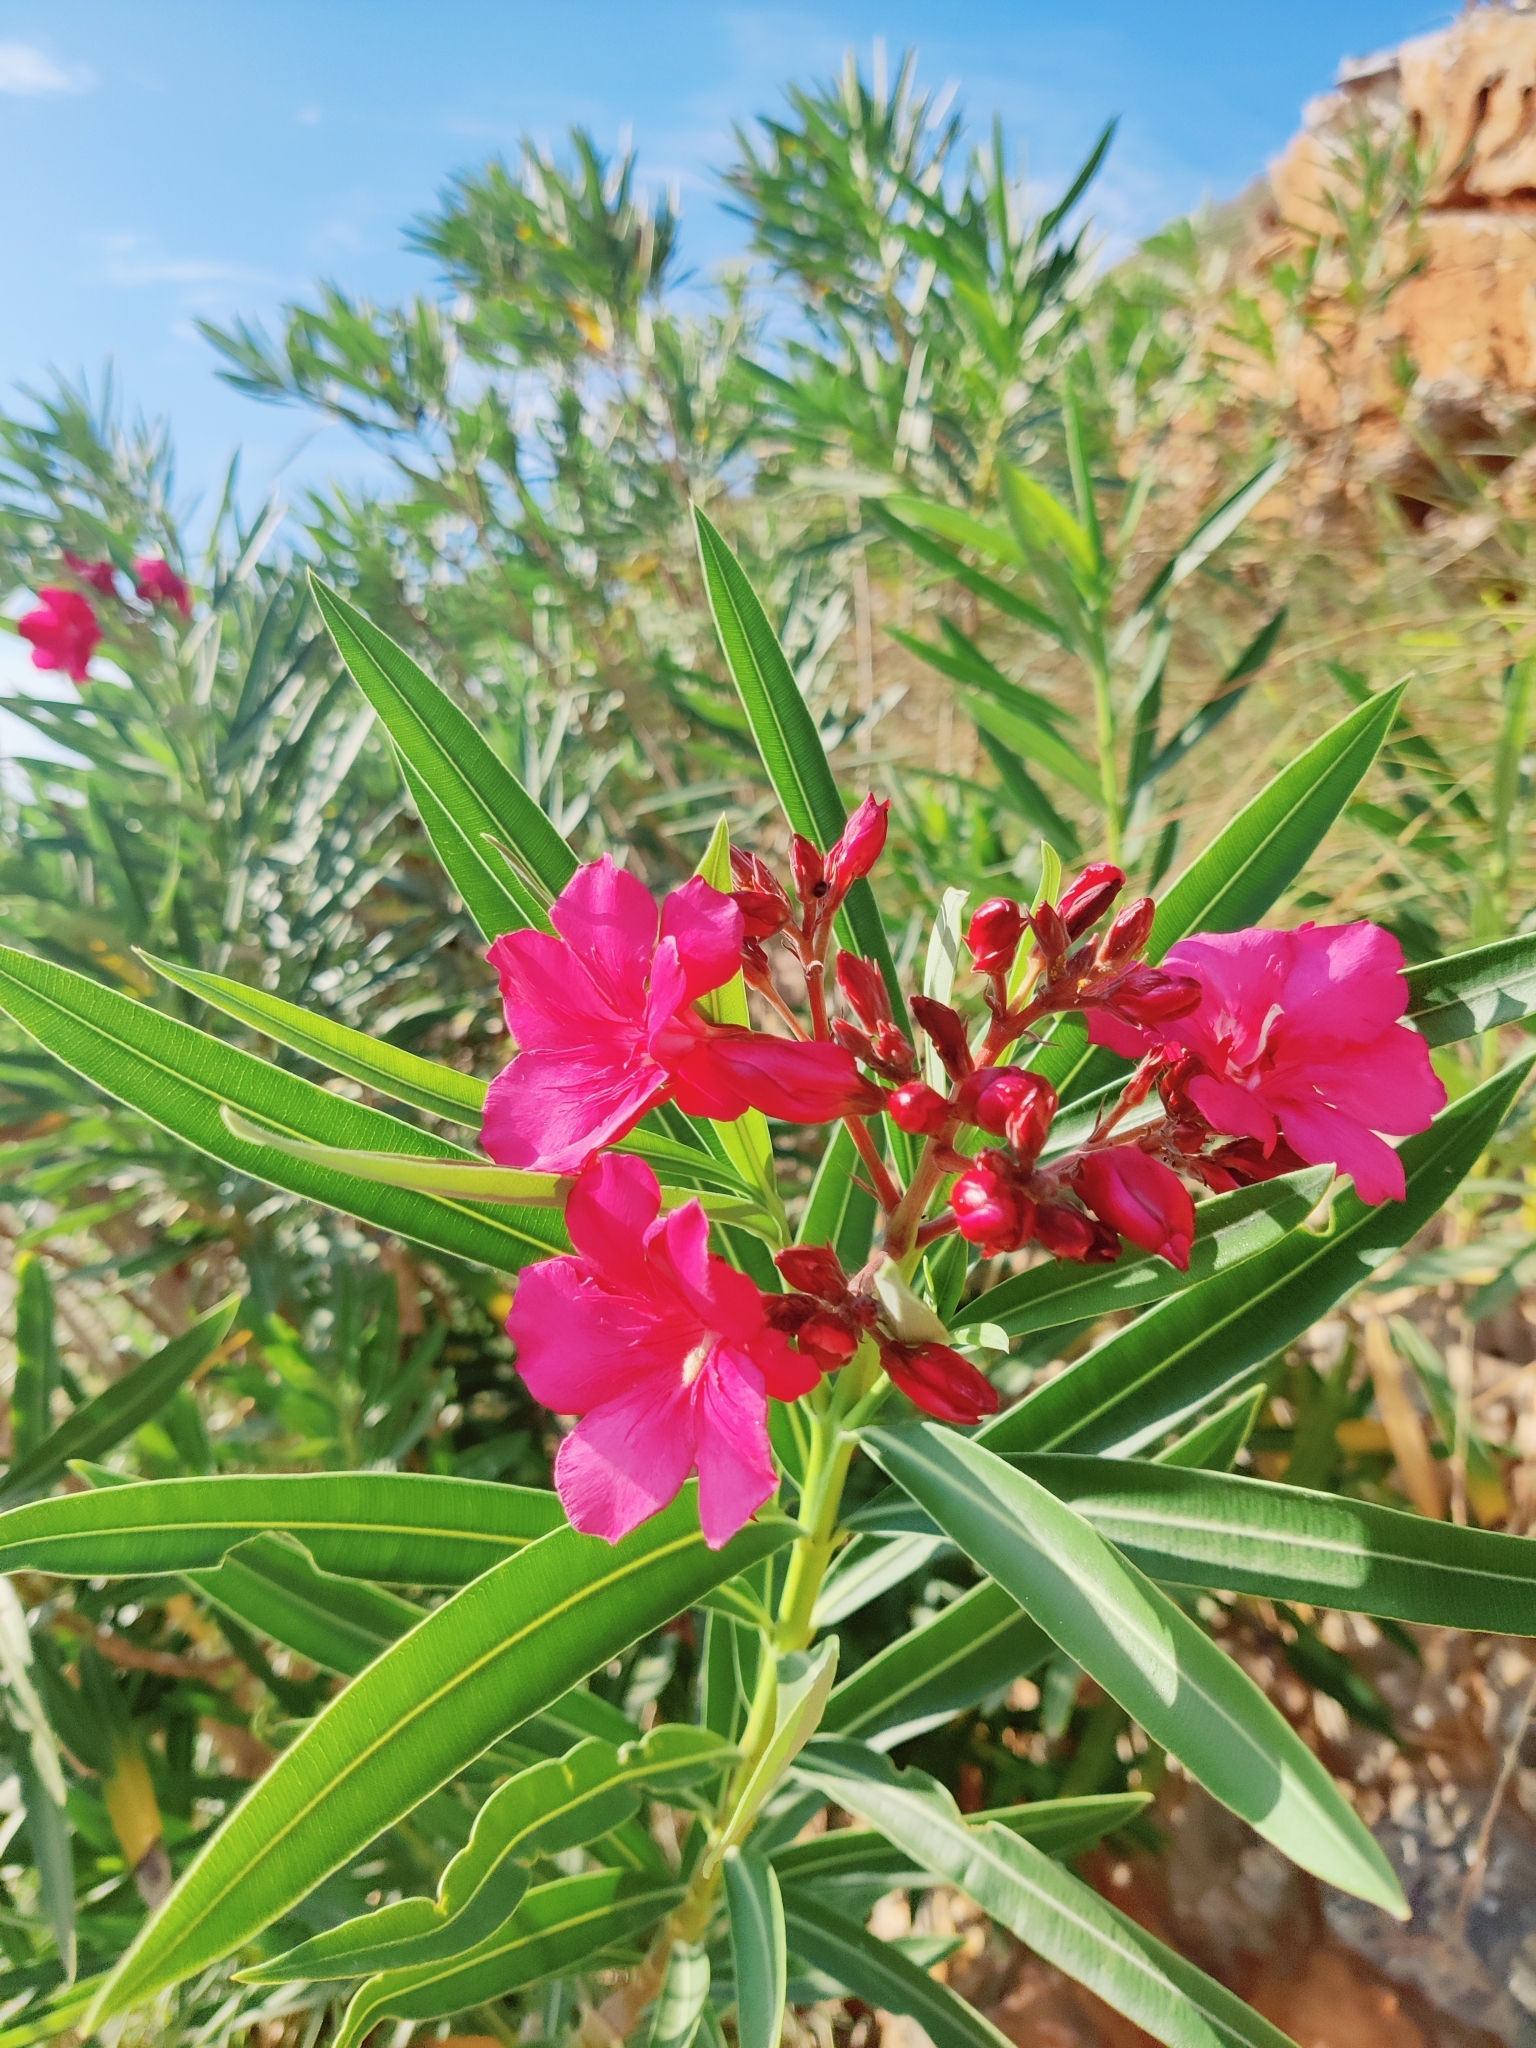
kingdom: Plantae
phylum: Tracheophyta
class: Magnoliopsida
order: Gentianales
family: Apocynaceae
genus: Nerium
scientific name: Nerium oleander
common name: Oleander
